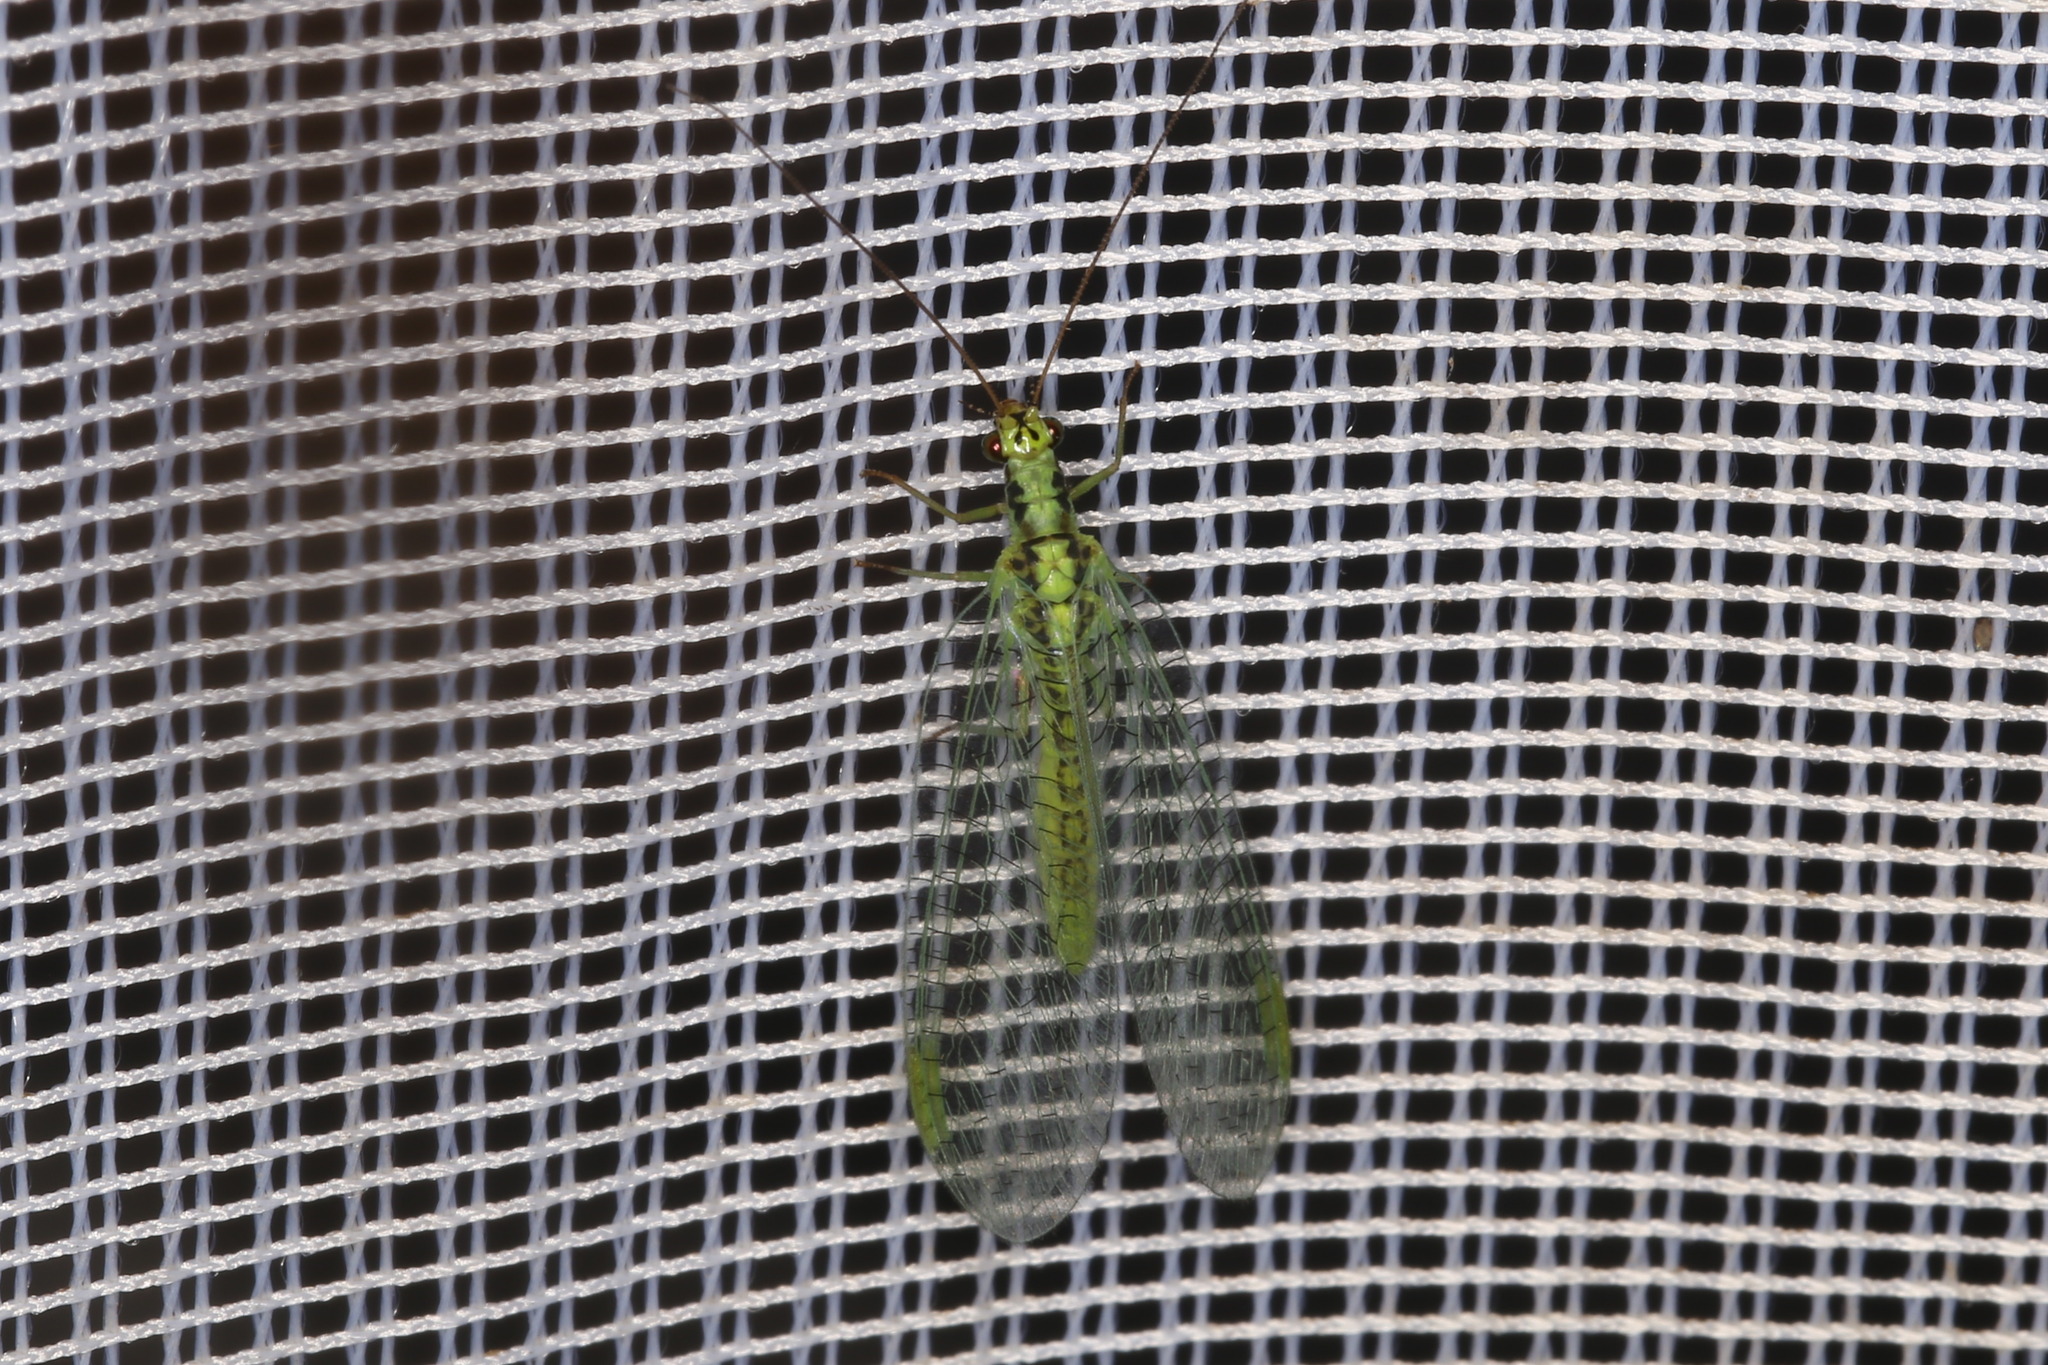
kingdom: Animalia
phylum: Arthropoda
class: Insecta
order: Neuroptera
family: Chrysopidae
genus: Chrysopa
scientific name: Chrysopa walkeri
